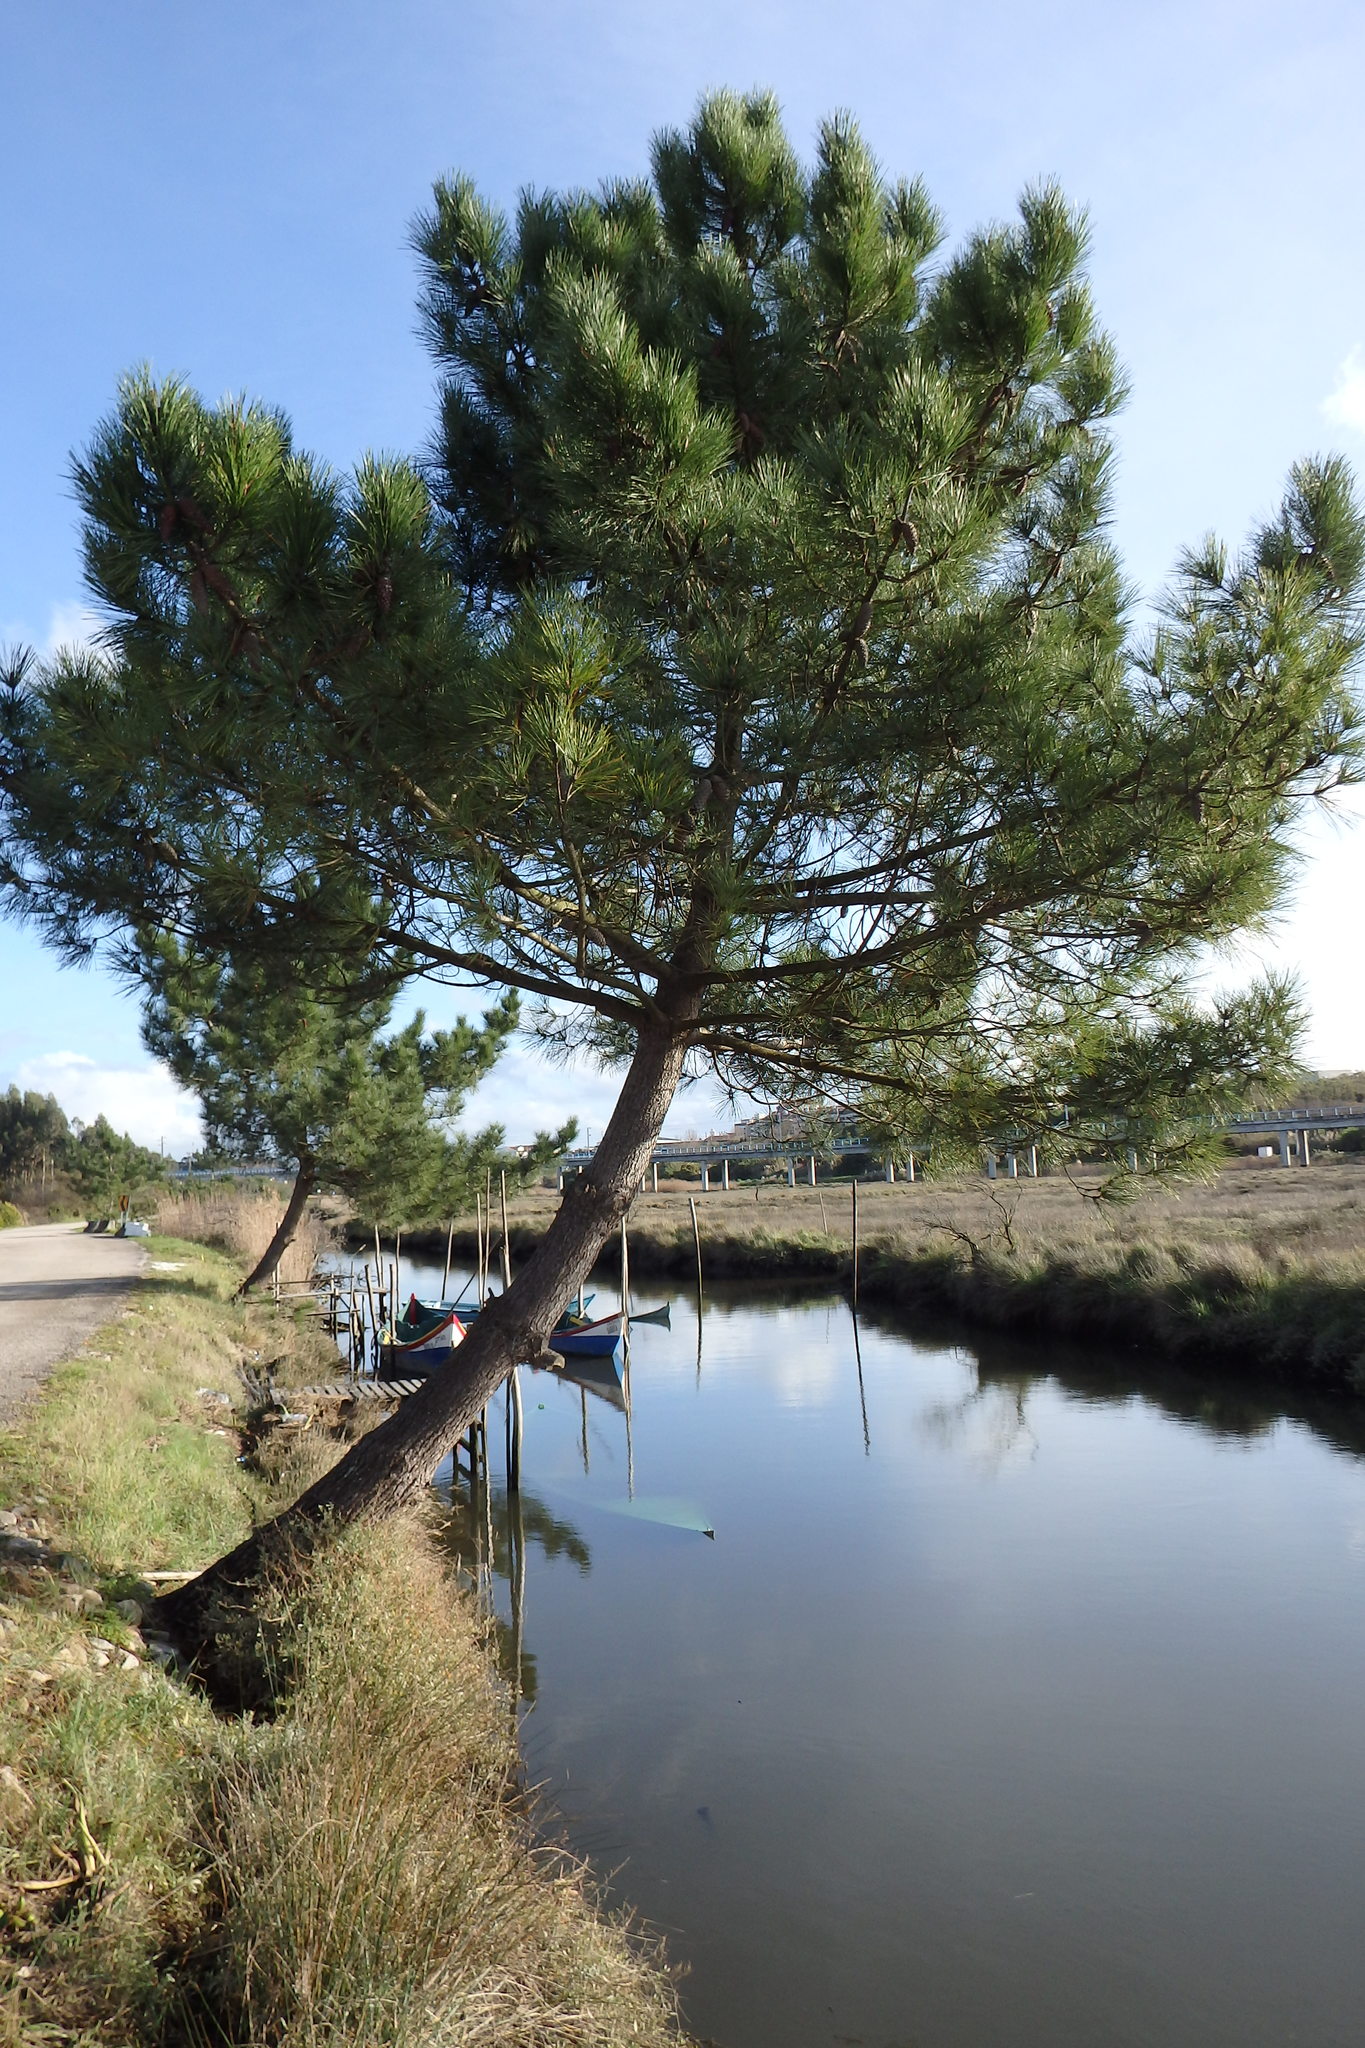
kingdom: Plantae
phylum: Tracheophyta
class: Pinopsida
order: Pinales
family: Pinaceae
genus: Pinus
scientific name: Pinus pinaster
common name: Maritime pine
